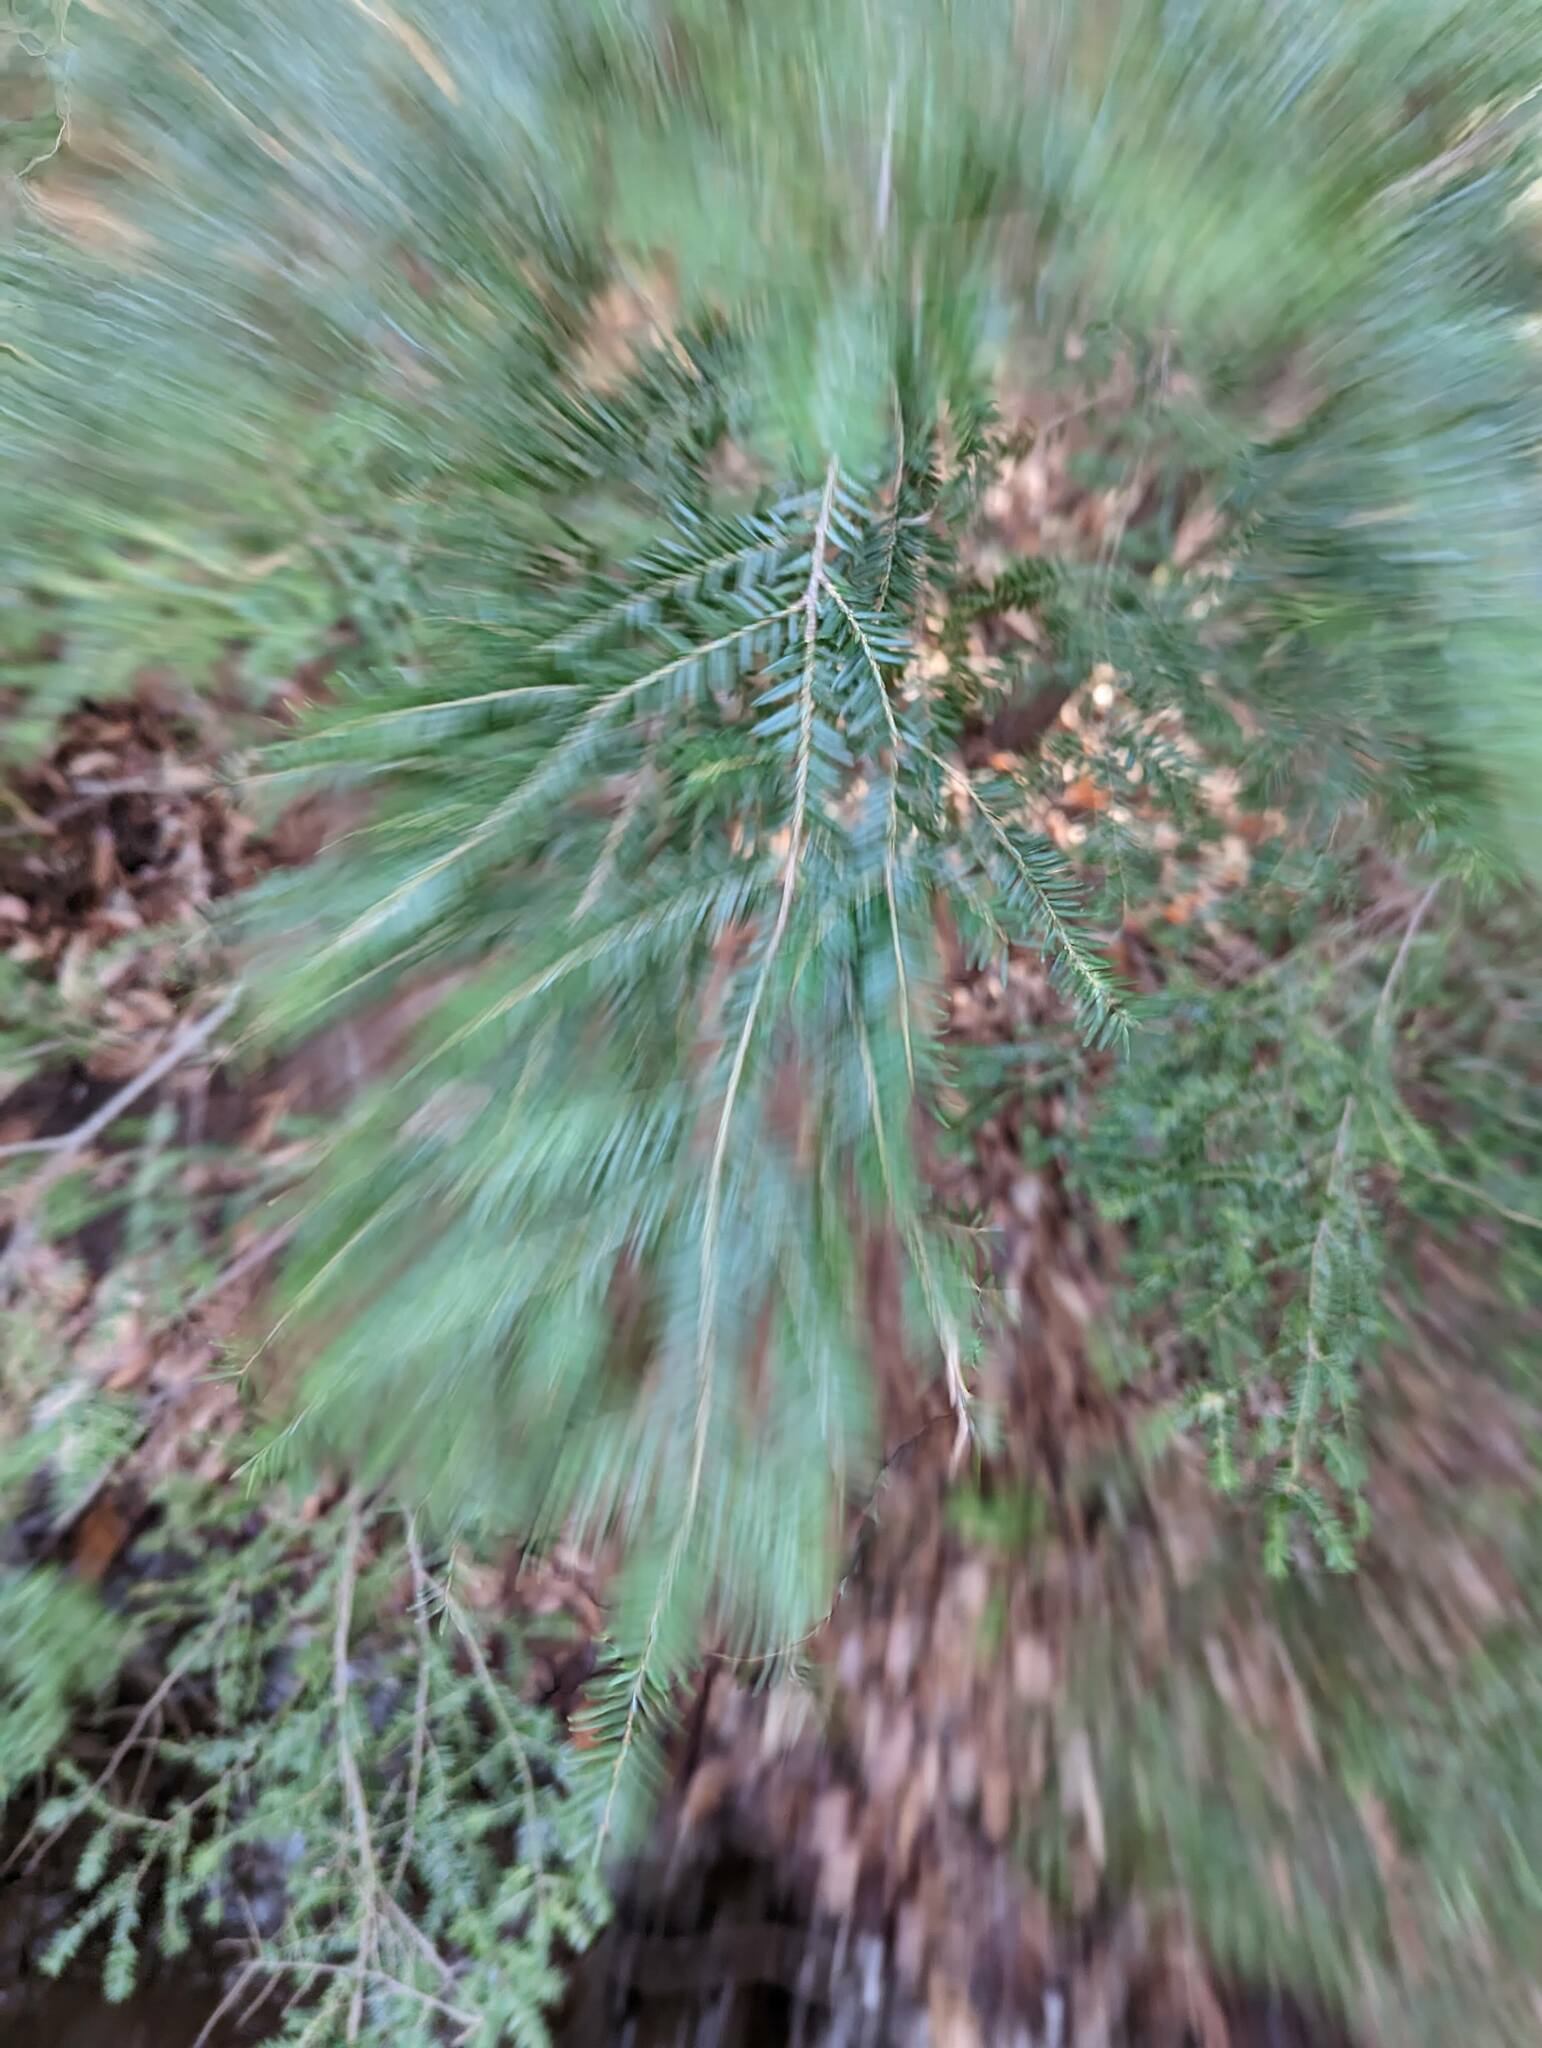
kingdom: Plantae
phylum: Tracheophyta
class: Pinopsida
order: Pinales
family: Pinaceae
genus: Tsuga
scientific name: Tsuga canadensis
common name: Eastern hemlock
